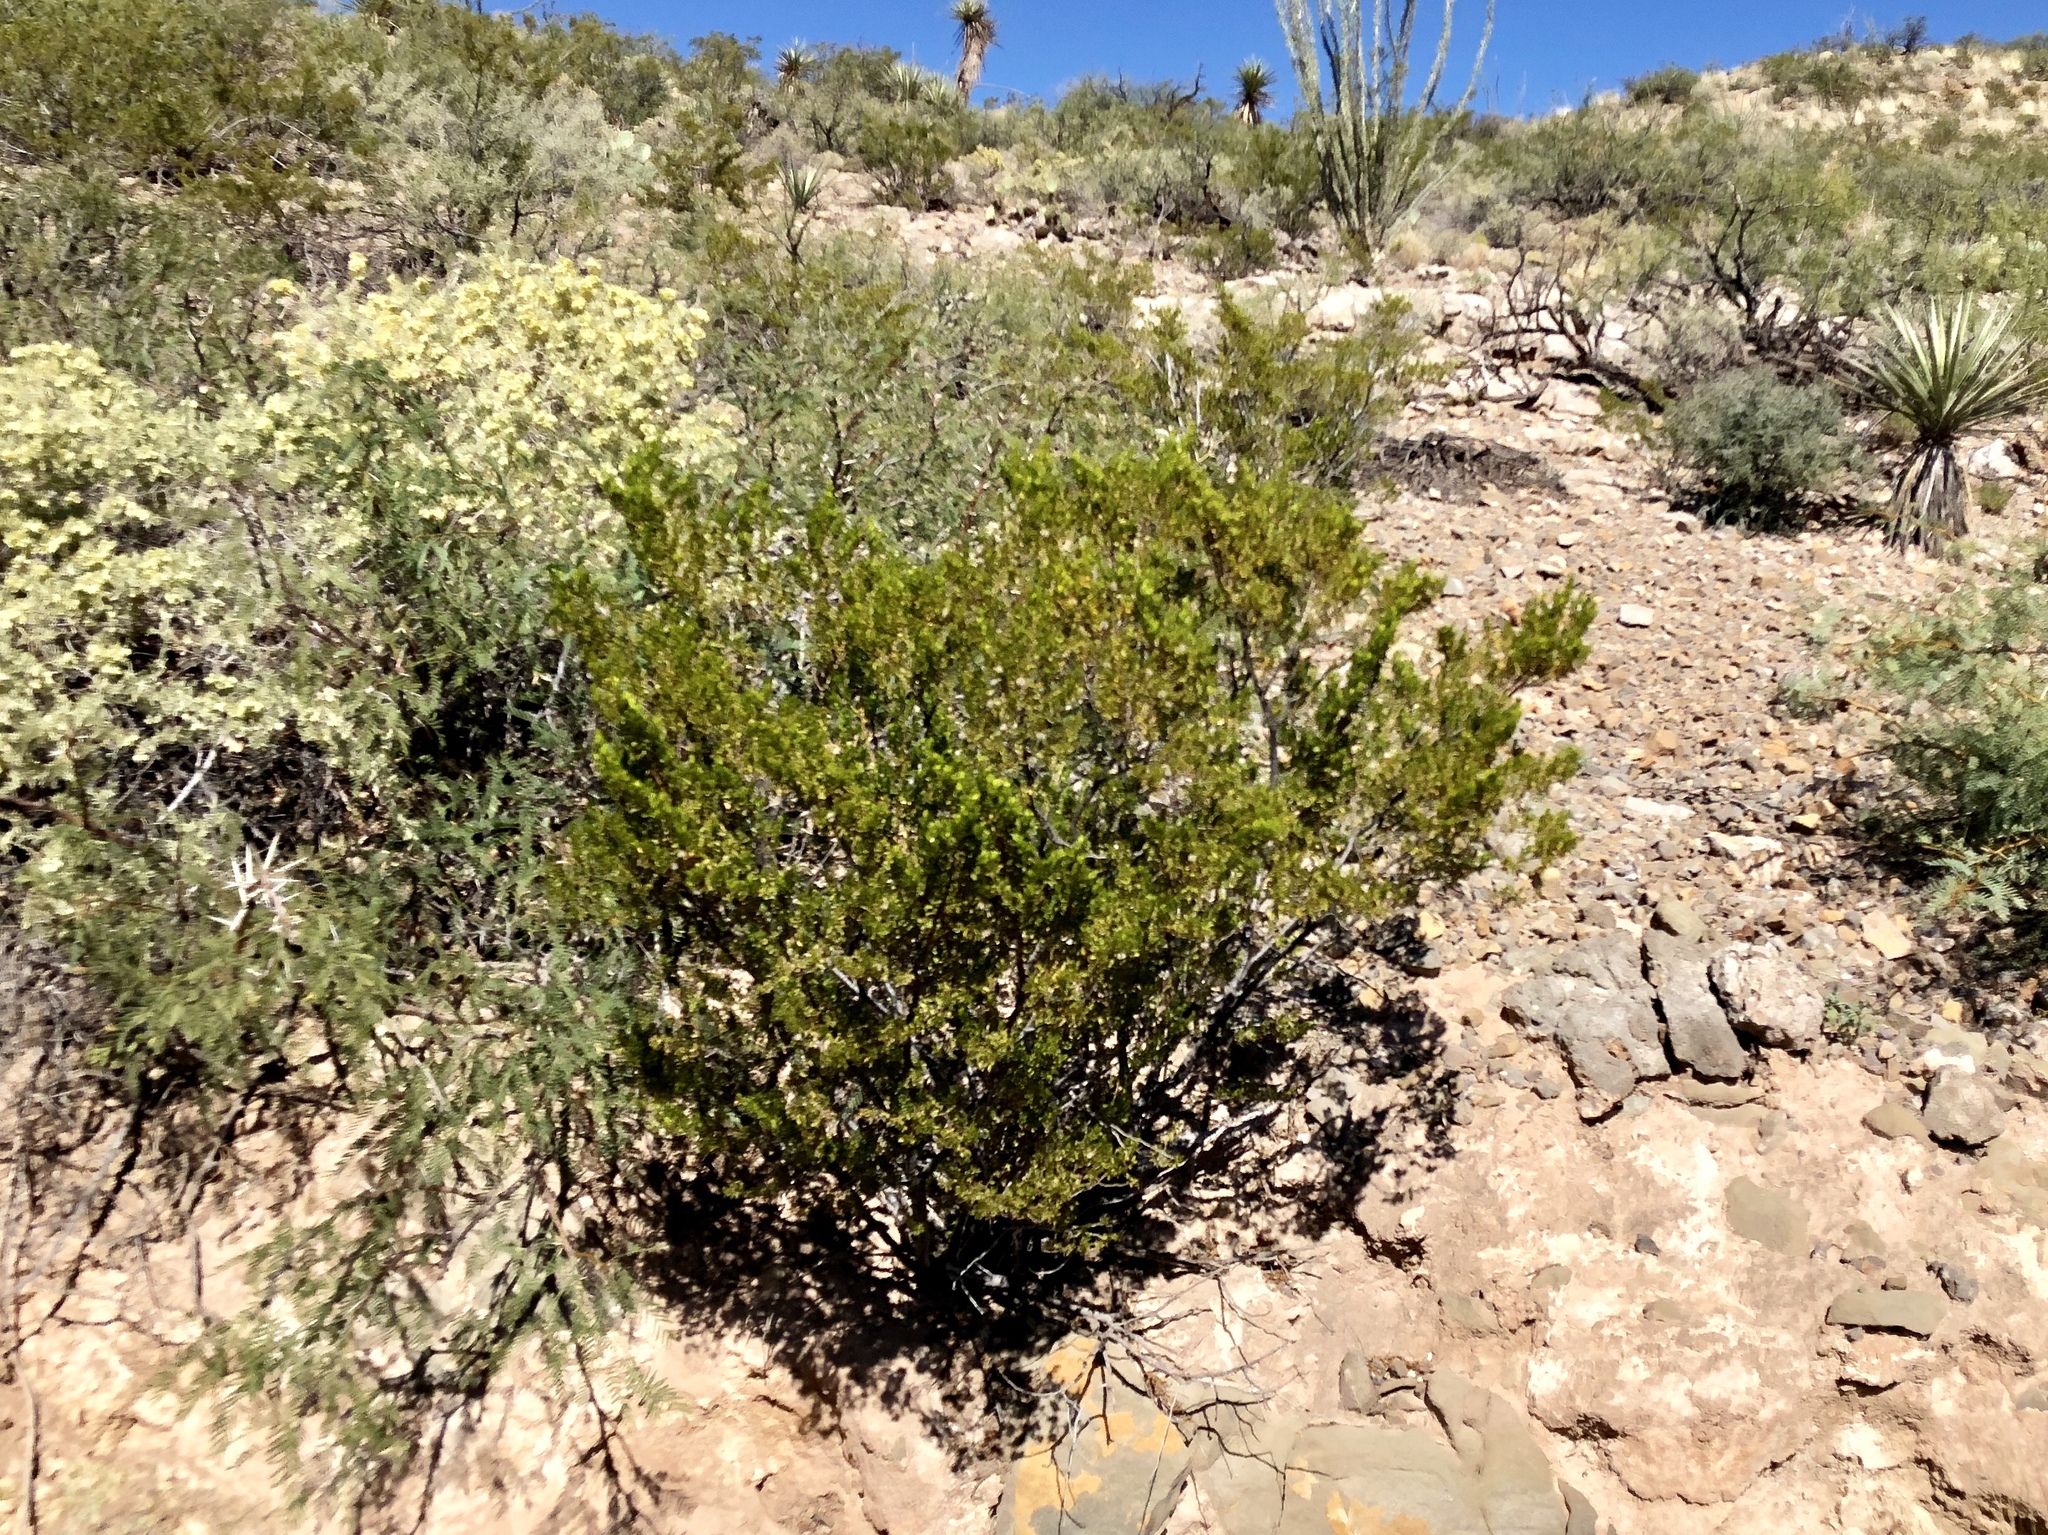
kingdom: Plantae
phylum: Tracheophyta
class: Magnoliopsida
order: Zygophyllales
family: Zygophyllaceae
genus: Larrea
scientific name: Larrea tridentata
